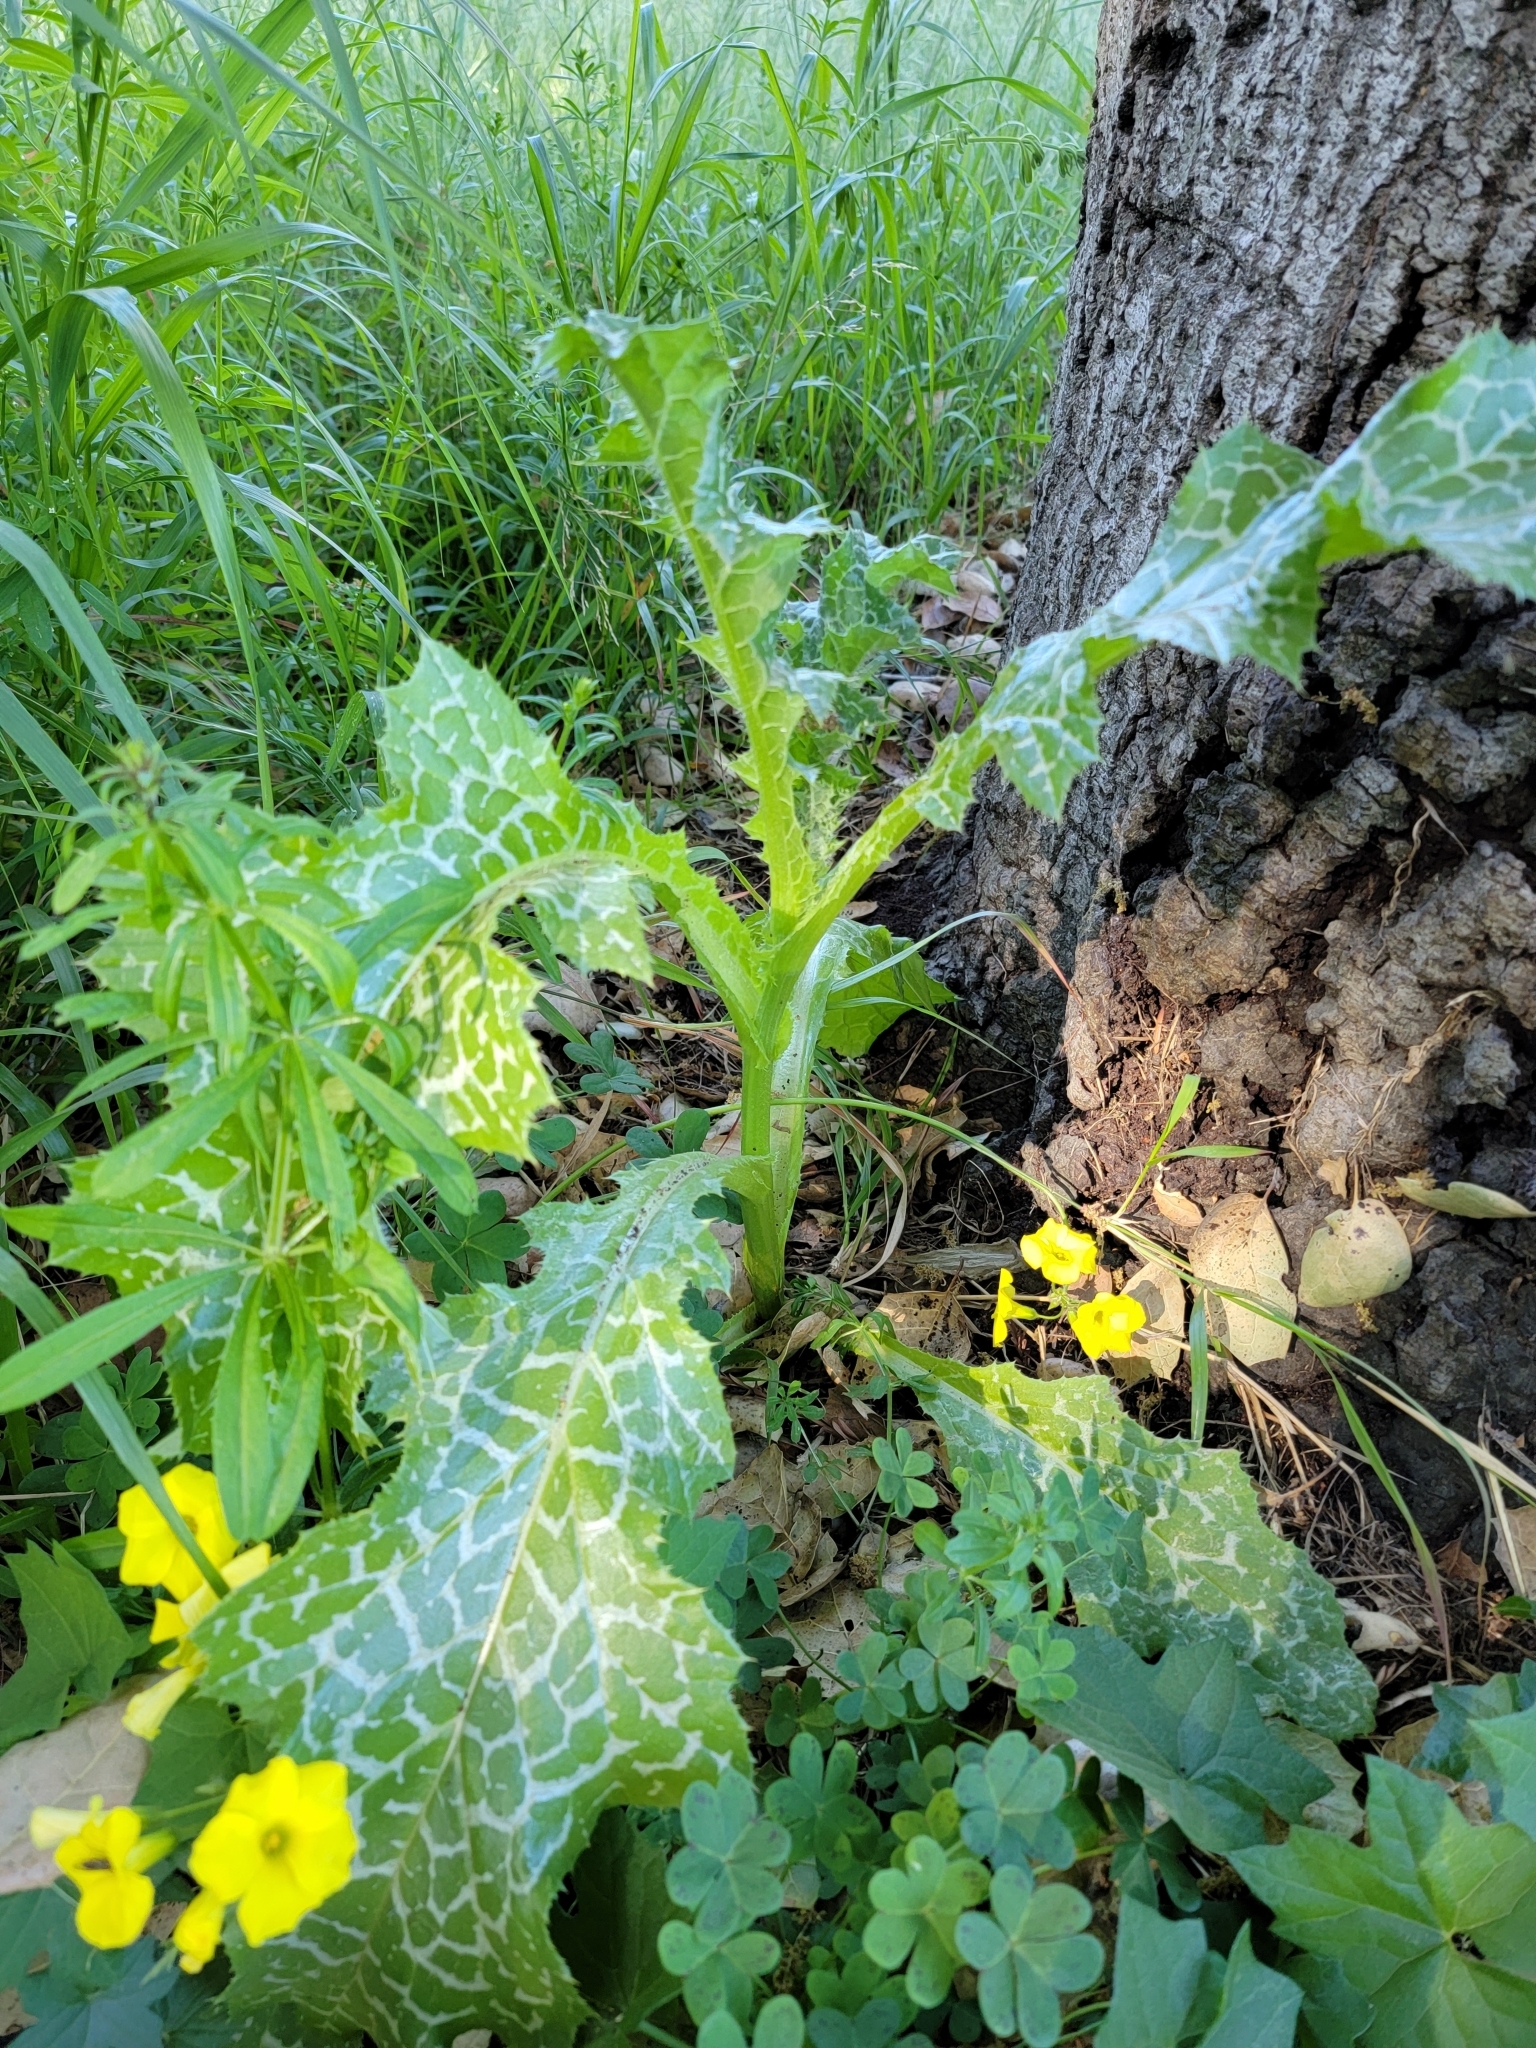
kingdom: Plantae
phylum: Tracheophyta
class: Magnoliopsida
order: Asterales
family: Asteraceae
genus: Silybum
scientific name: Silybum marianum
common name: Milk thistle
